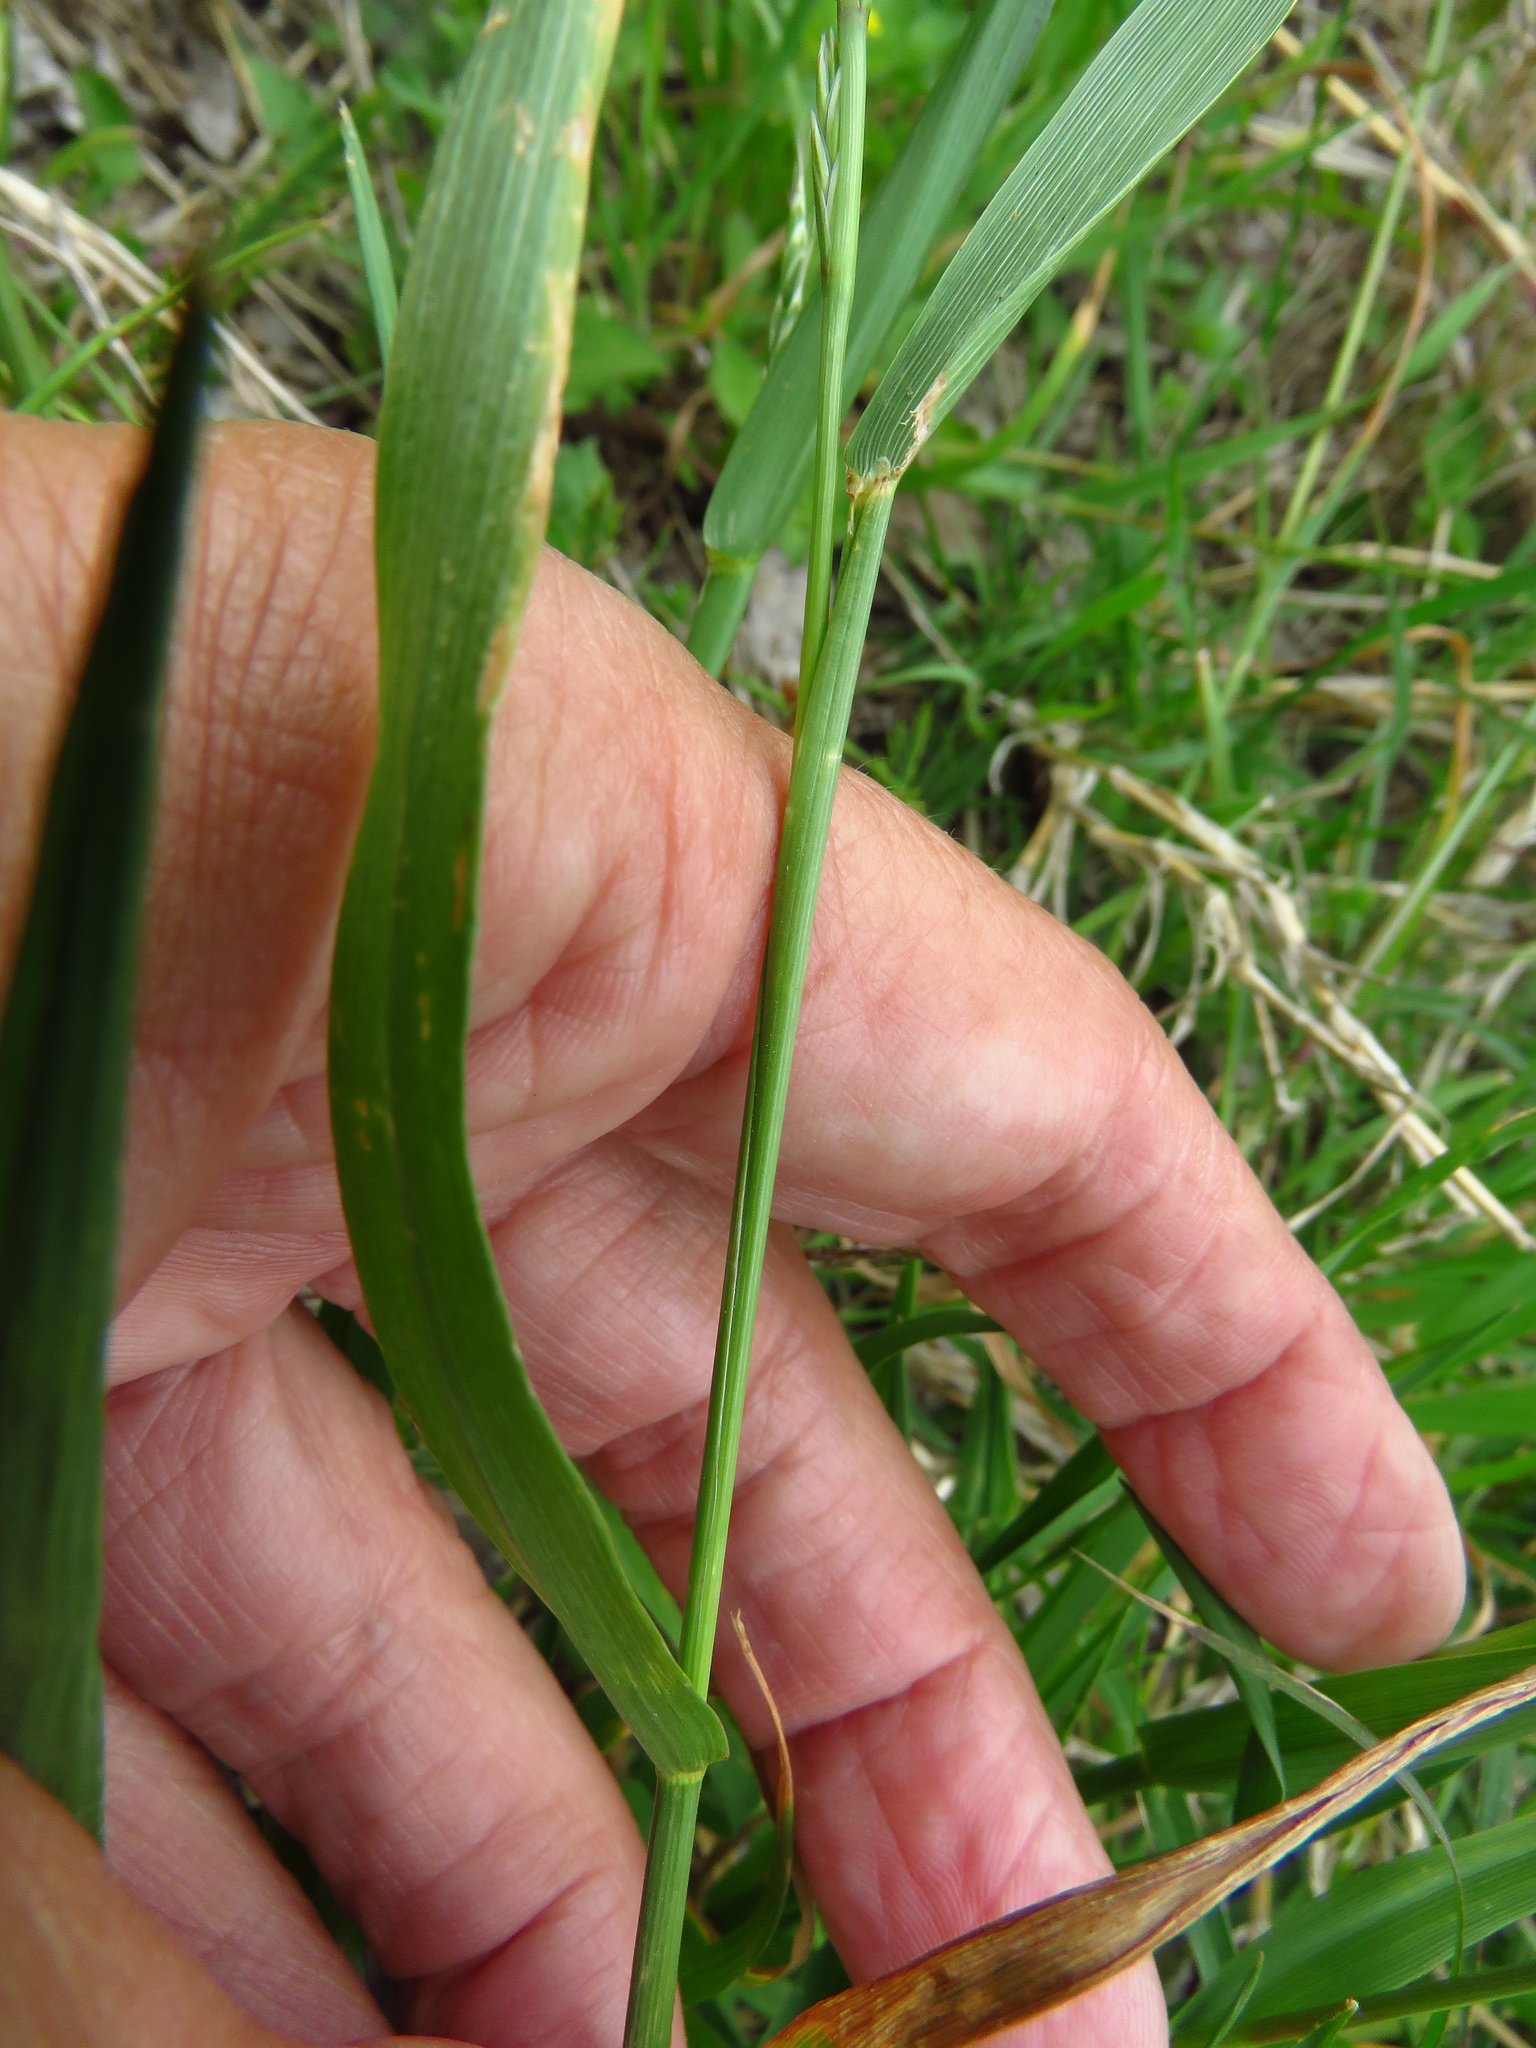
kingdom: Plantae
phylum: Tracheophyta
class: Liliopsida
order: Poales
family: Poaceae
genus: Lolium
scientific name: Lolium perenne
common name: Perennial ryegrass
